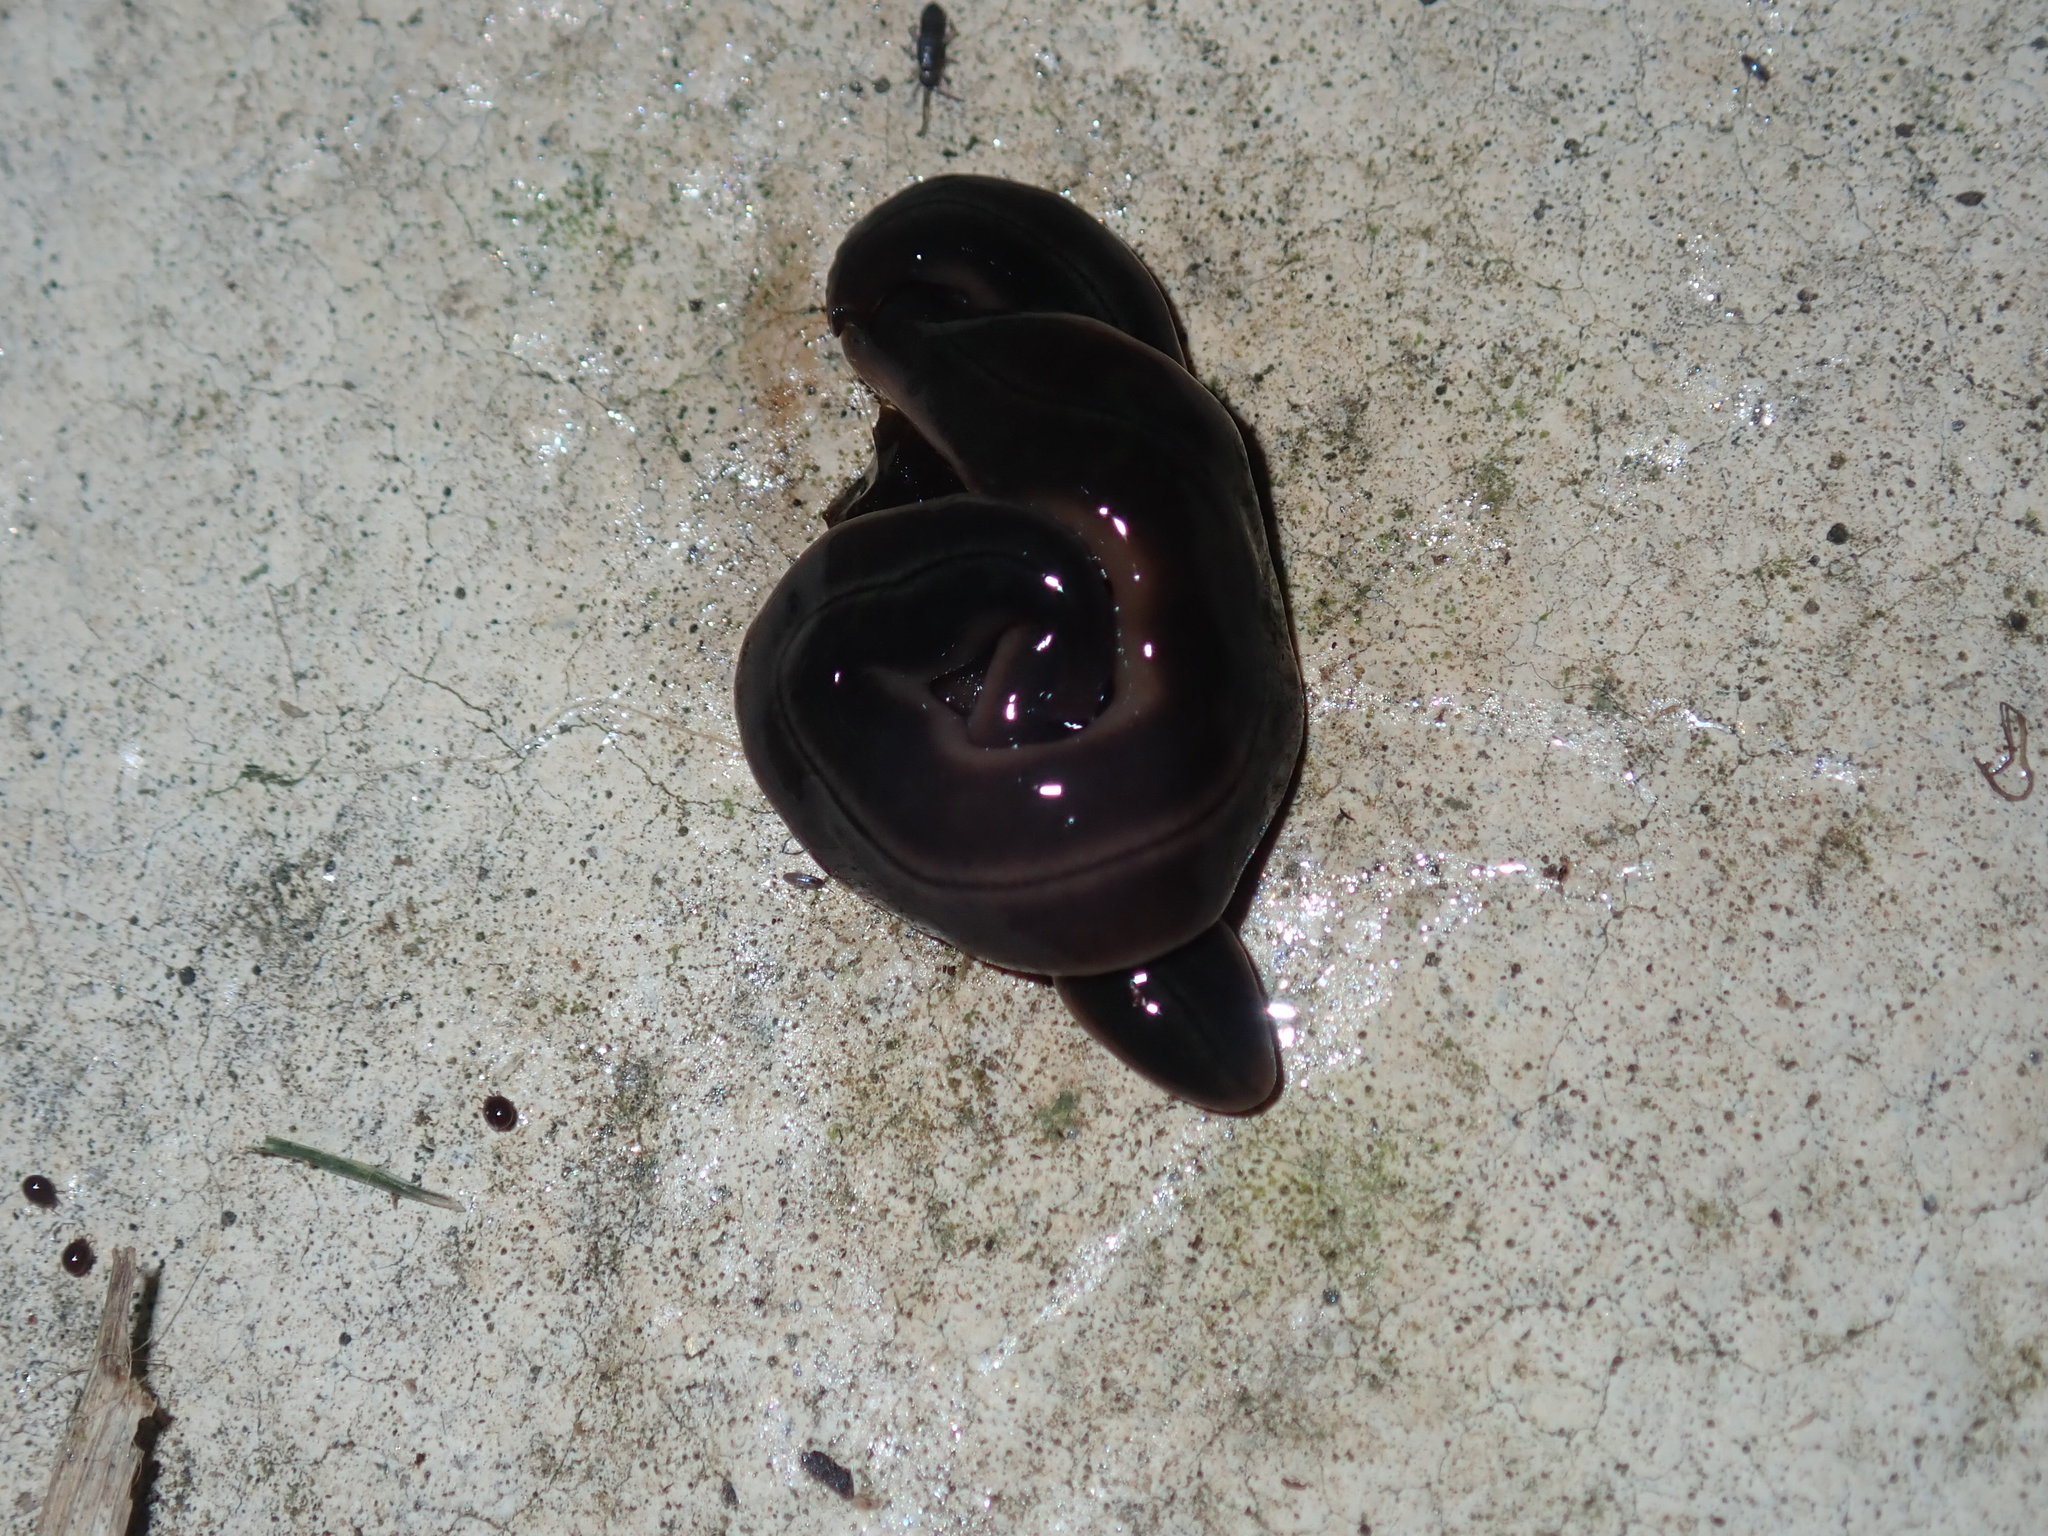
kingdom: Animalia
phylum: Platyhelminthes
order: Tricladida
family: Geoplanidae
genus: Parakontikia
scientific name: Parakontikia ventrolineata
